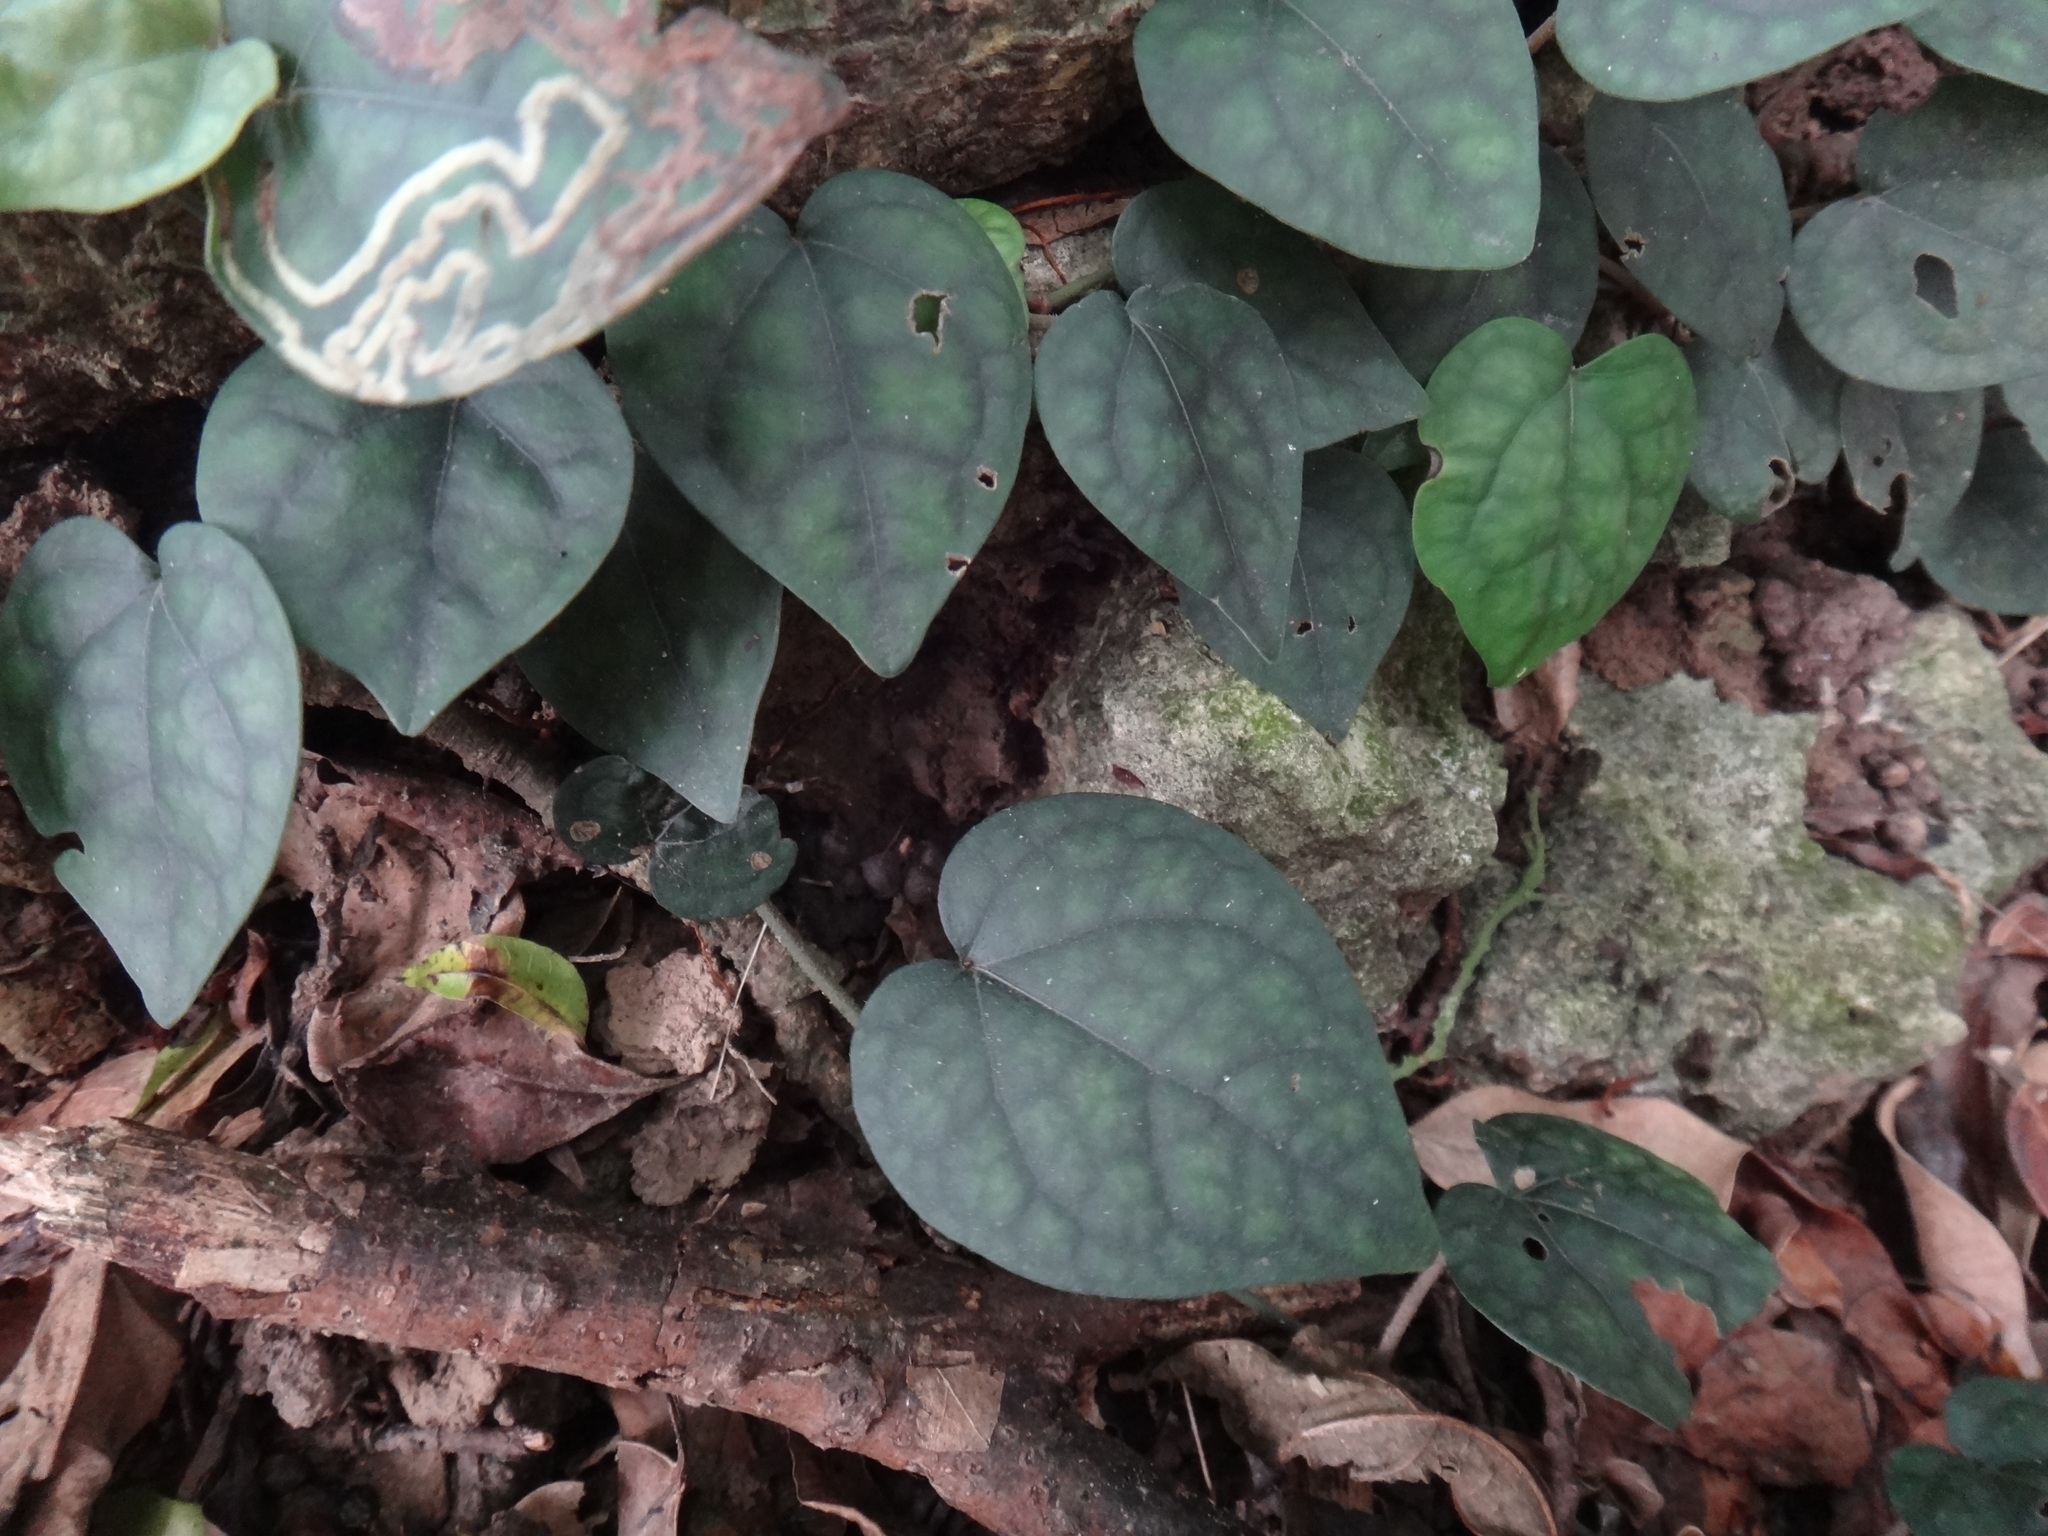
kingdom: Plantae
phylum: Tracheophyta
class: Magnoliopsida
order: Piperales
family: Piperaceae
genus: Piper
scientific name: Piper kadsura
